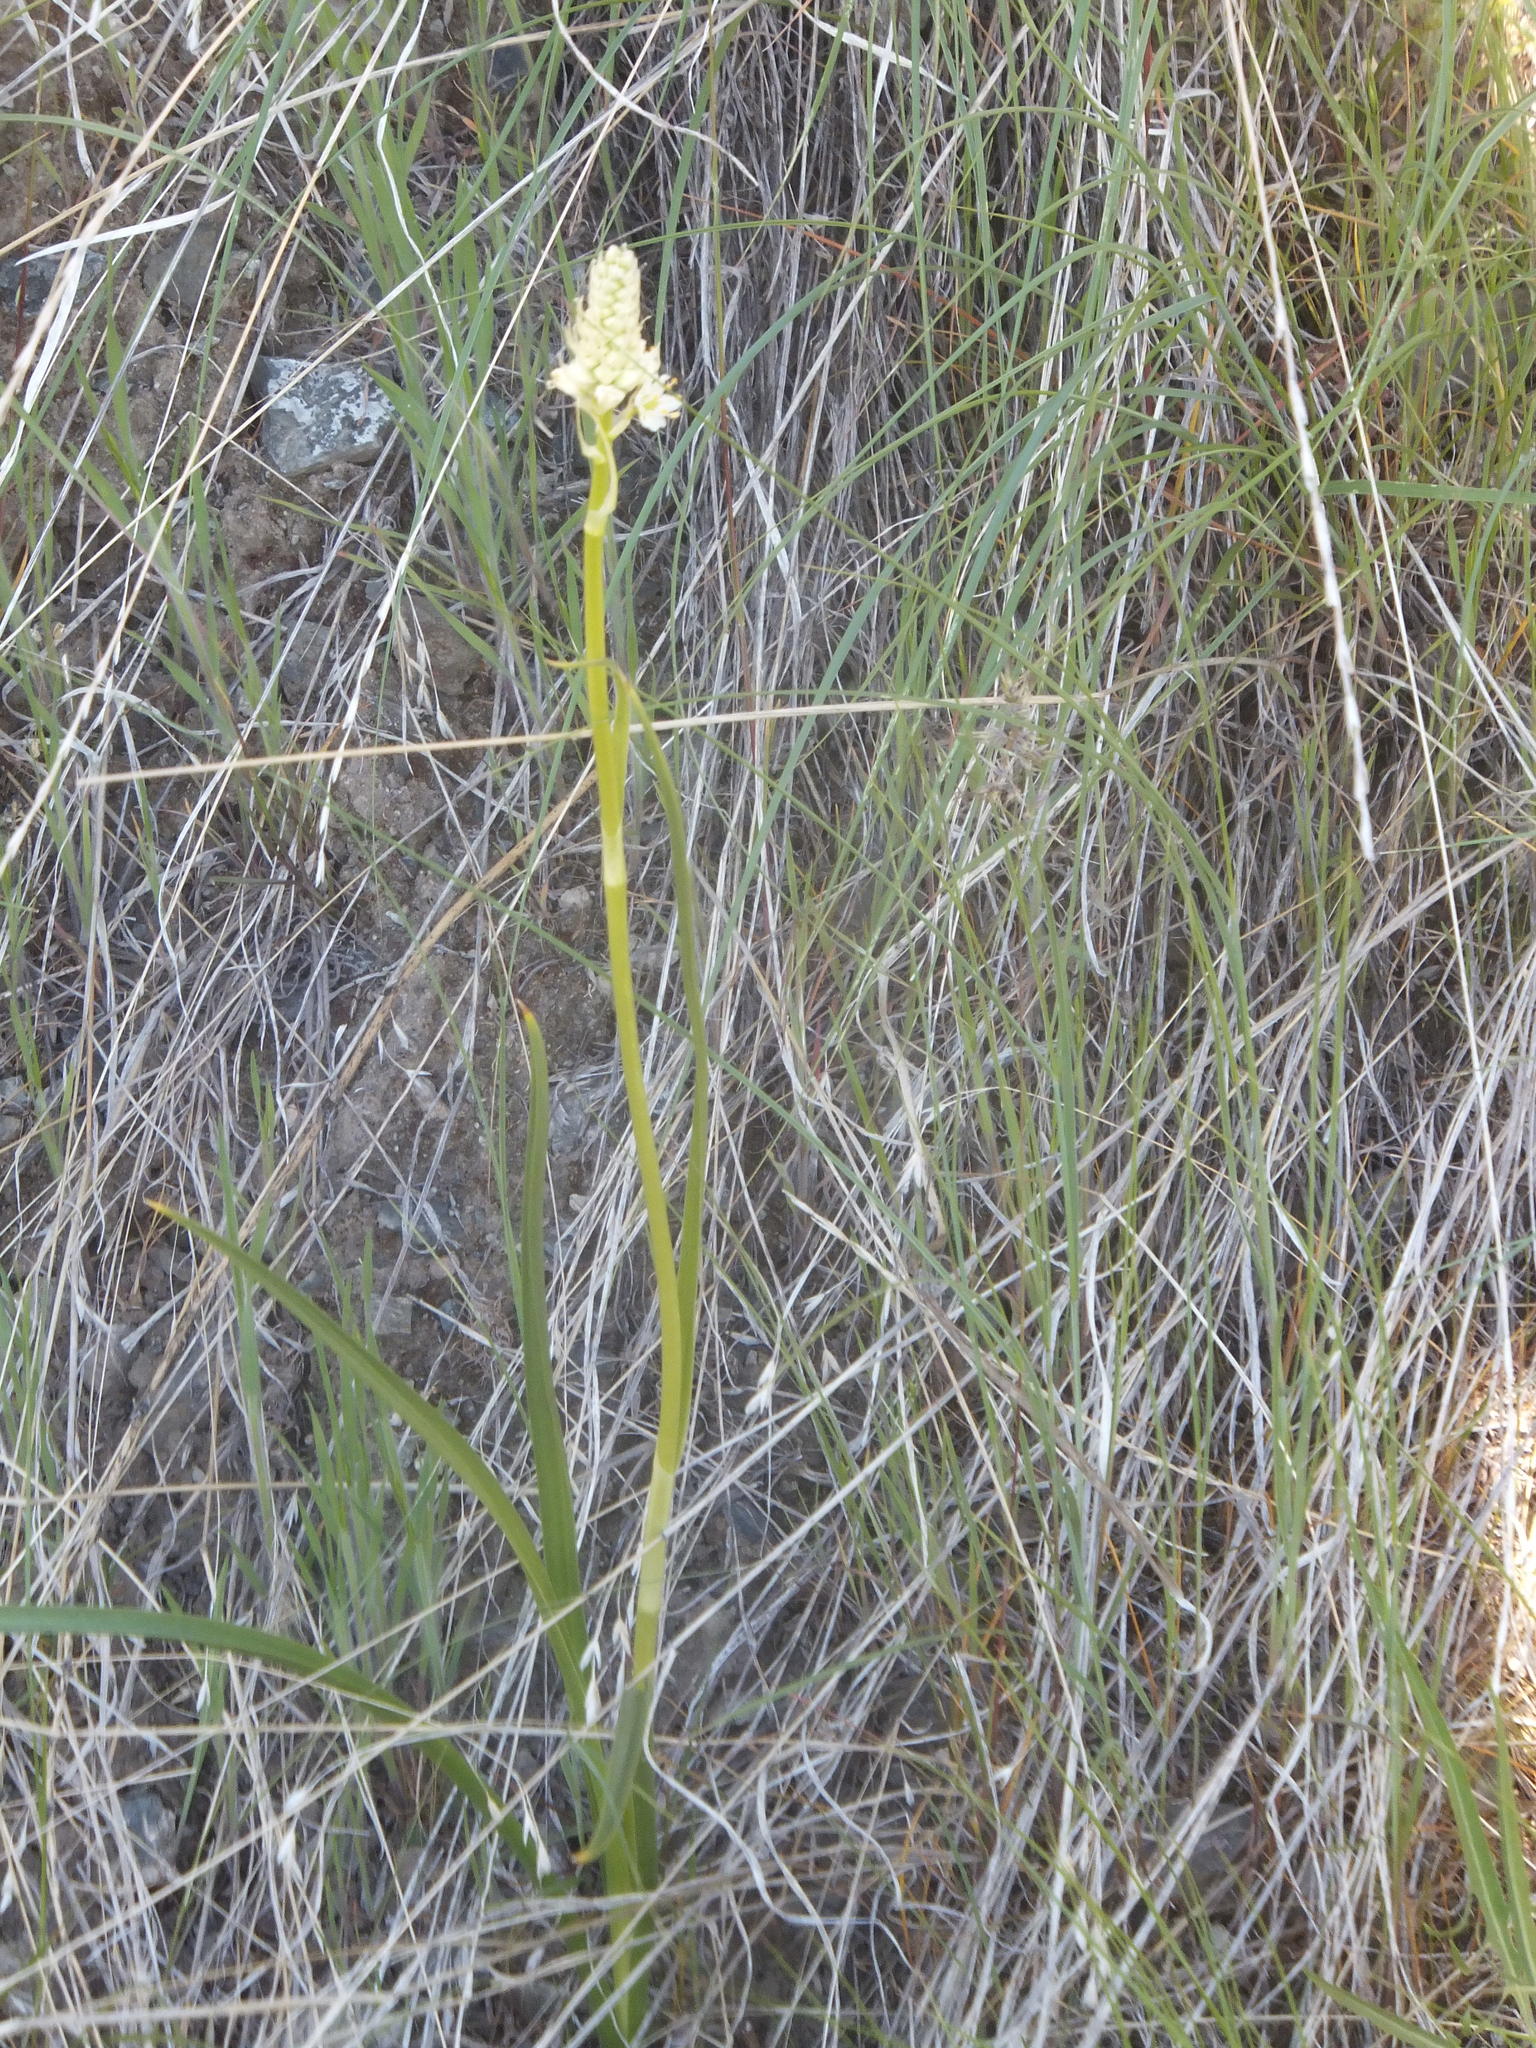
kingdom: Plantae
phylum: Tracheophyta
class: Liliopsida
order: Liliales
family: Melanthiaceae
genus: Toxicoscordion
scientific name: Toxicoscordion venenosum
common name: Meadow death camas
